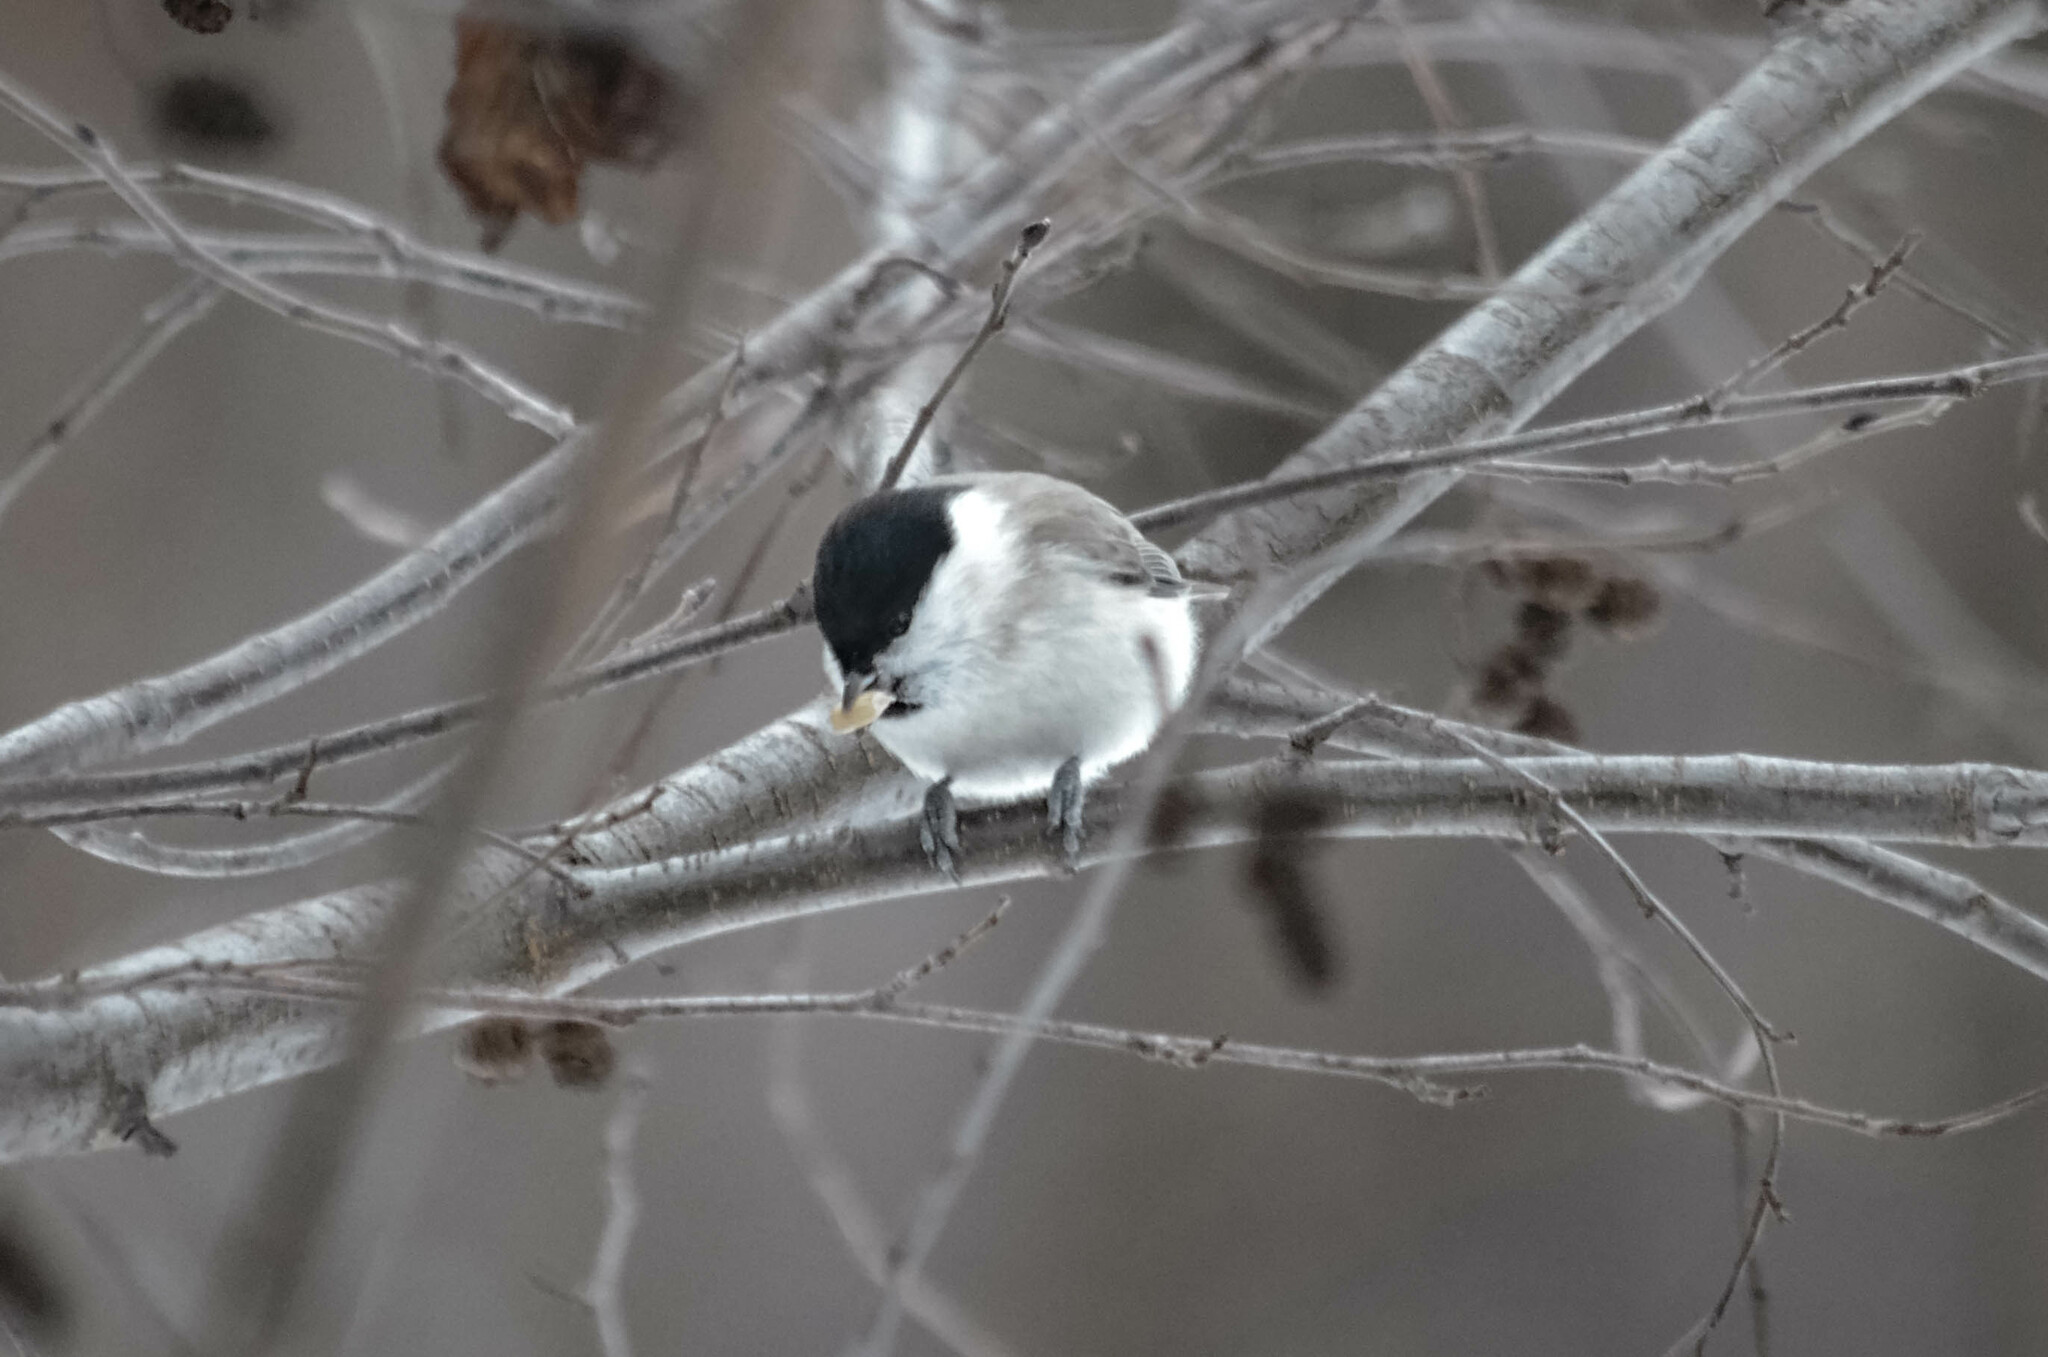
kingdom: Animalia
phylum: Chordata
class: Aves
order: Passeriformes
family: Paridae
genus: Poecile
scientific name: Poecile palustris
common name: Marsh tit
